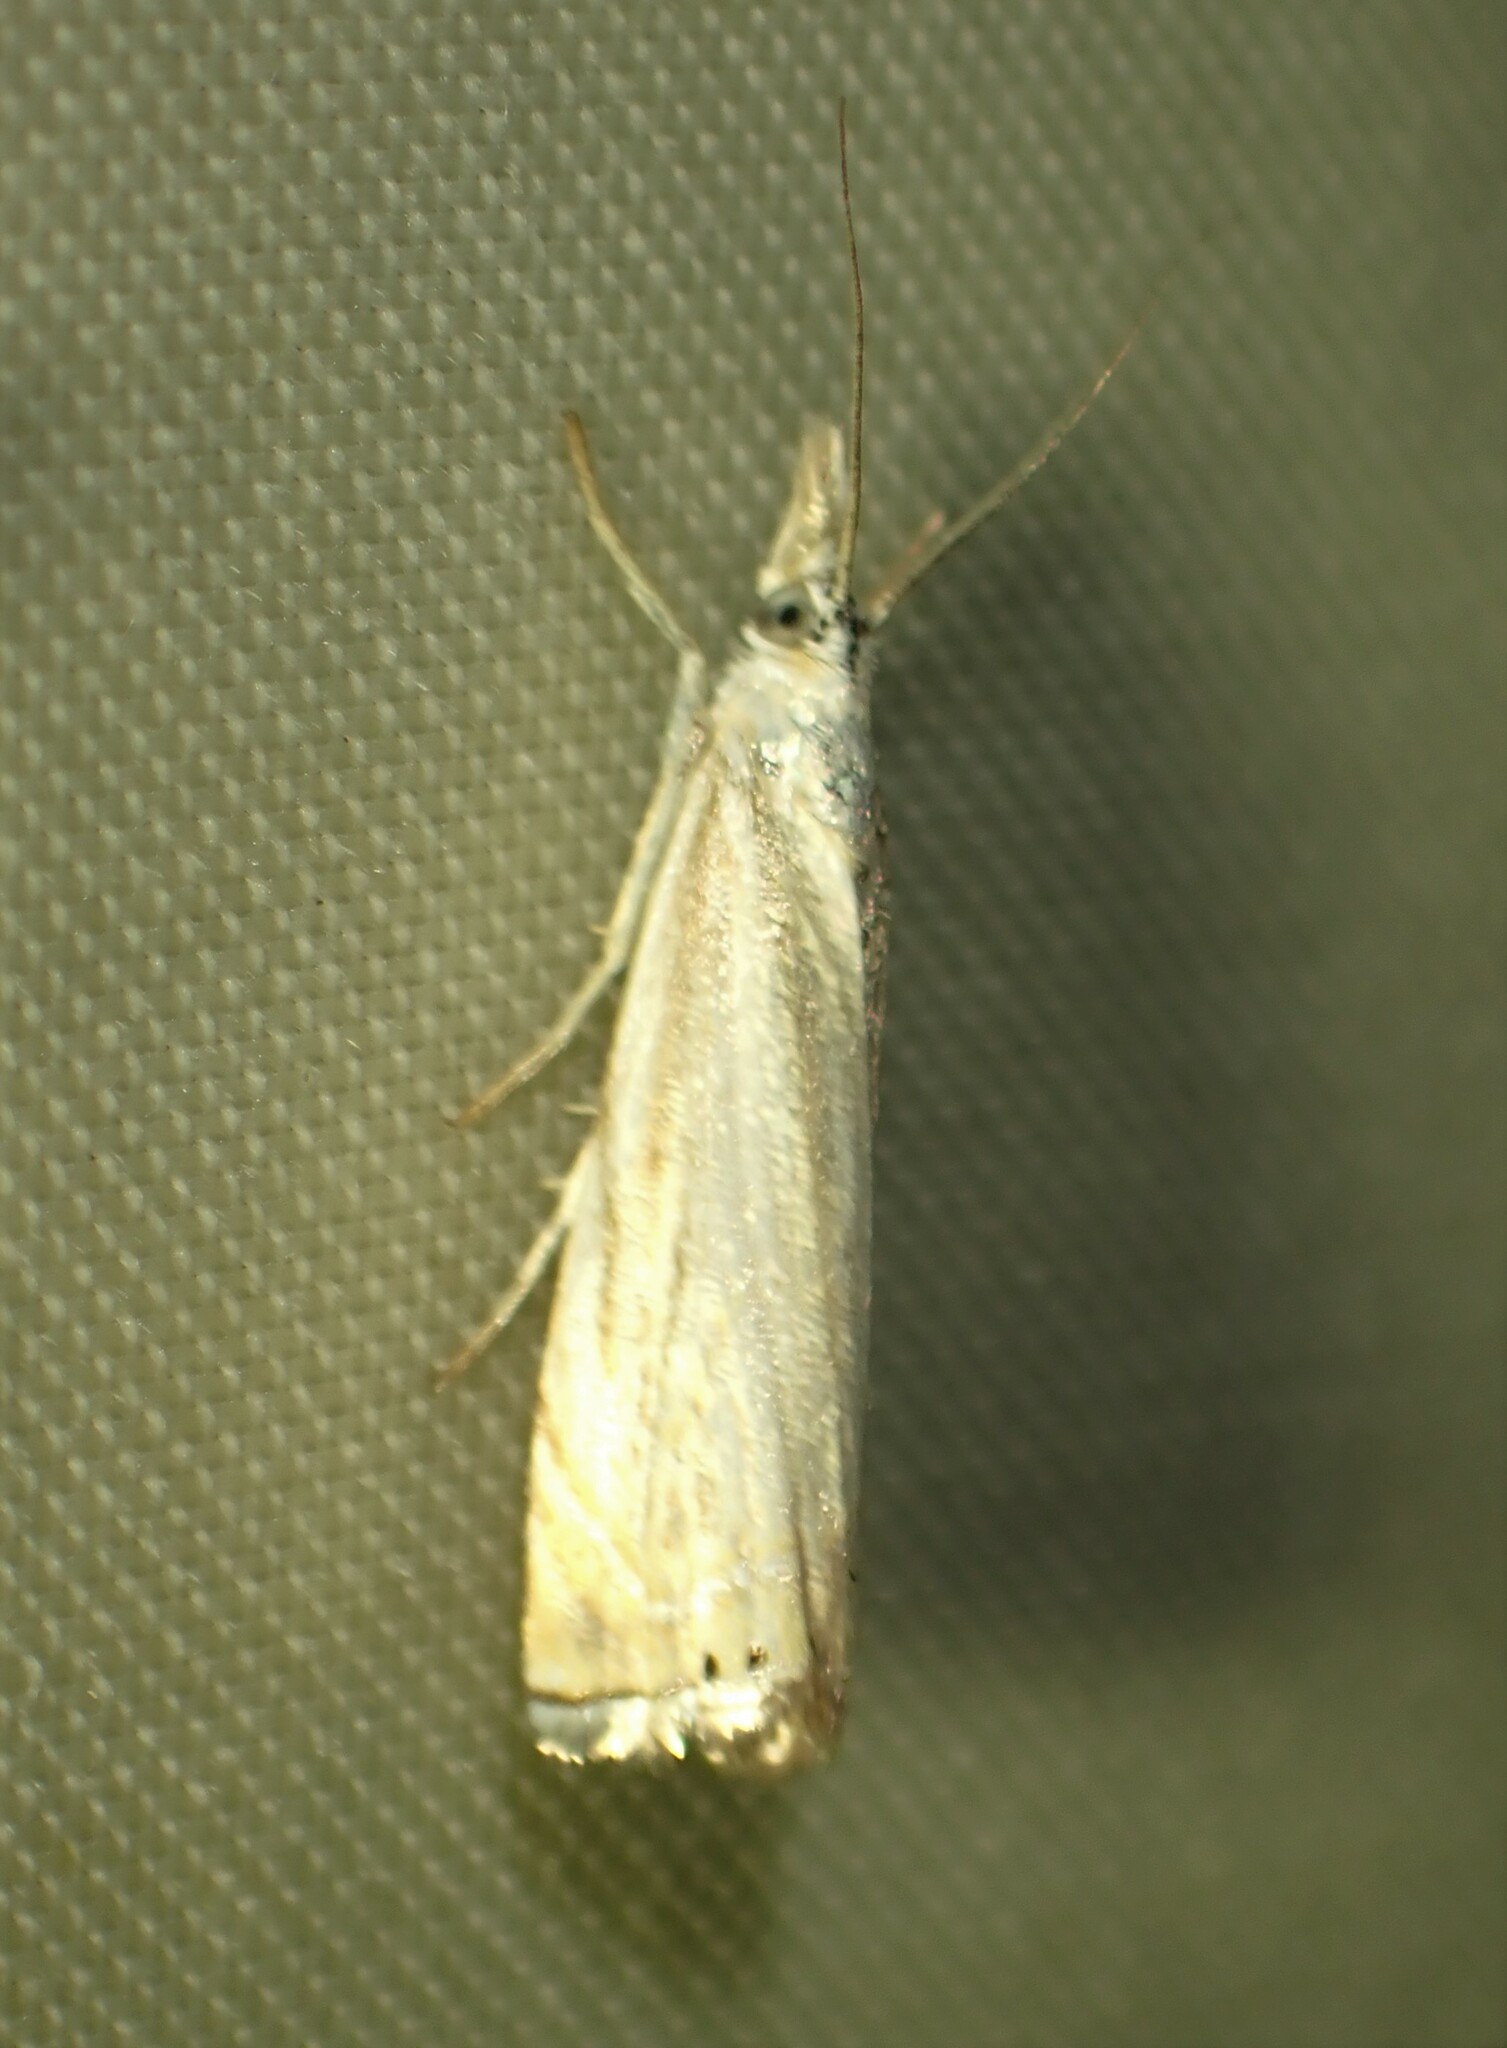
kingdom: Animalia
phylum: Arthropoda
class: Insecta
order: Lepidoptera
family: Crambidae
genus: Chrysoteuchia
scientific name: Chrysoteuchia topiarius
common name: Topiary grass-veneer
